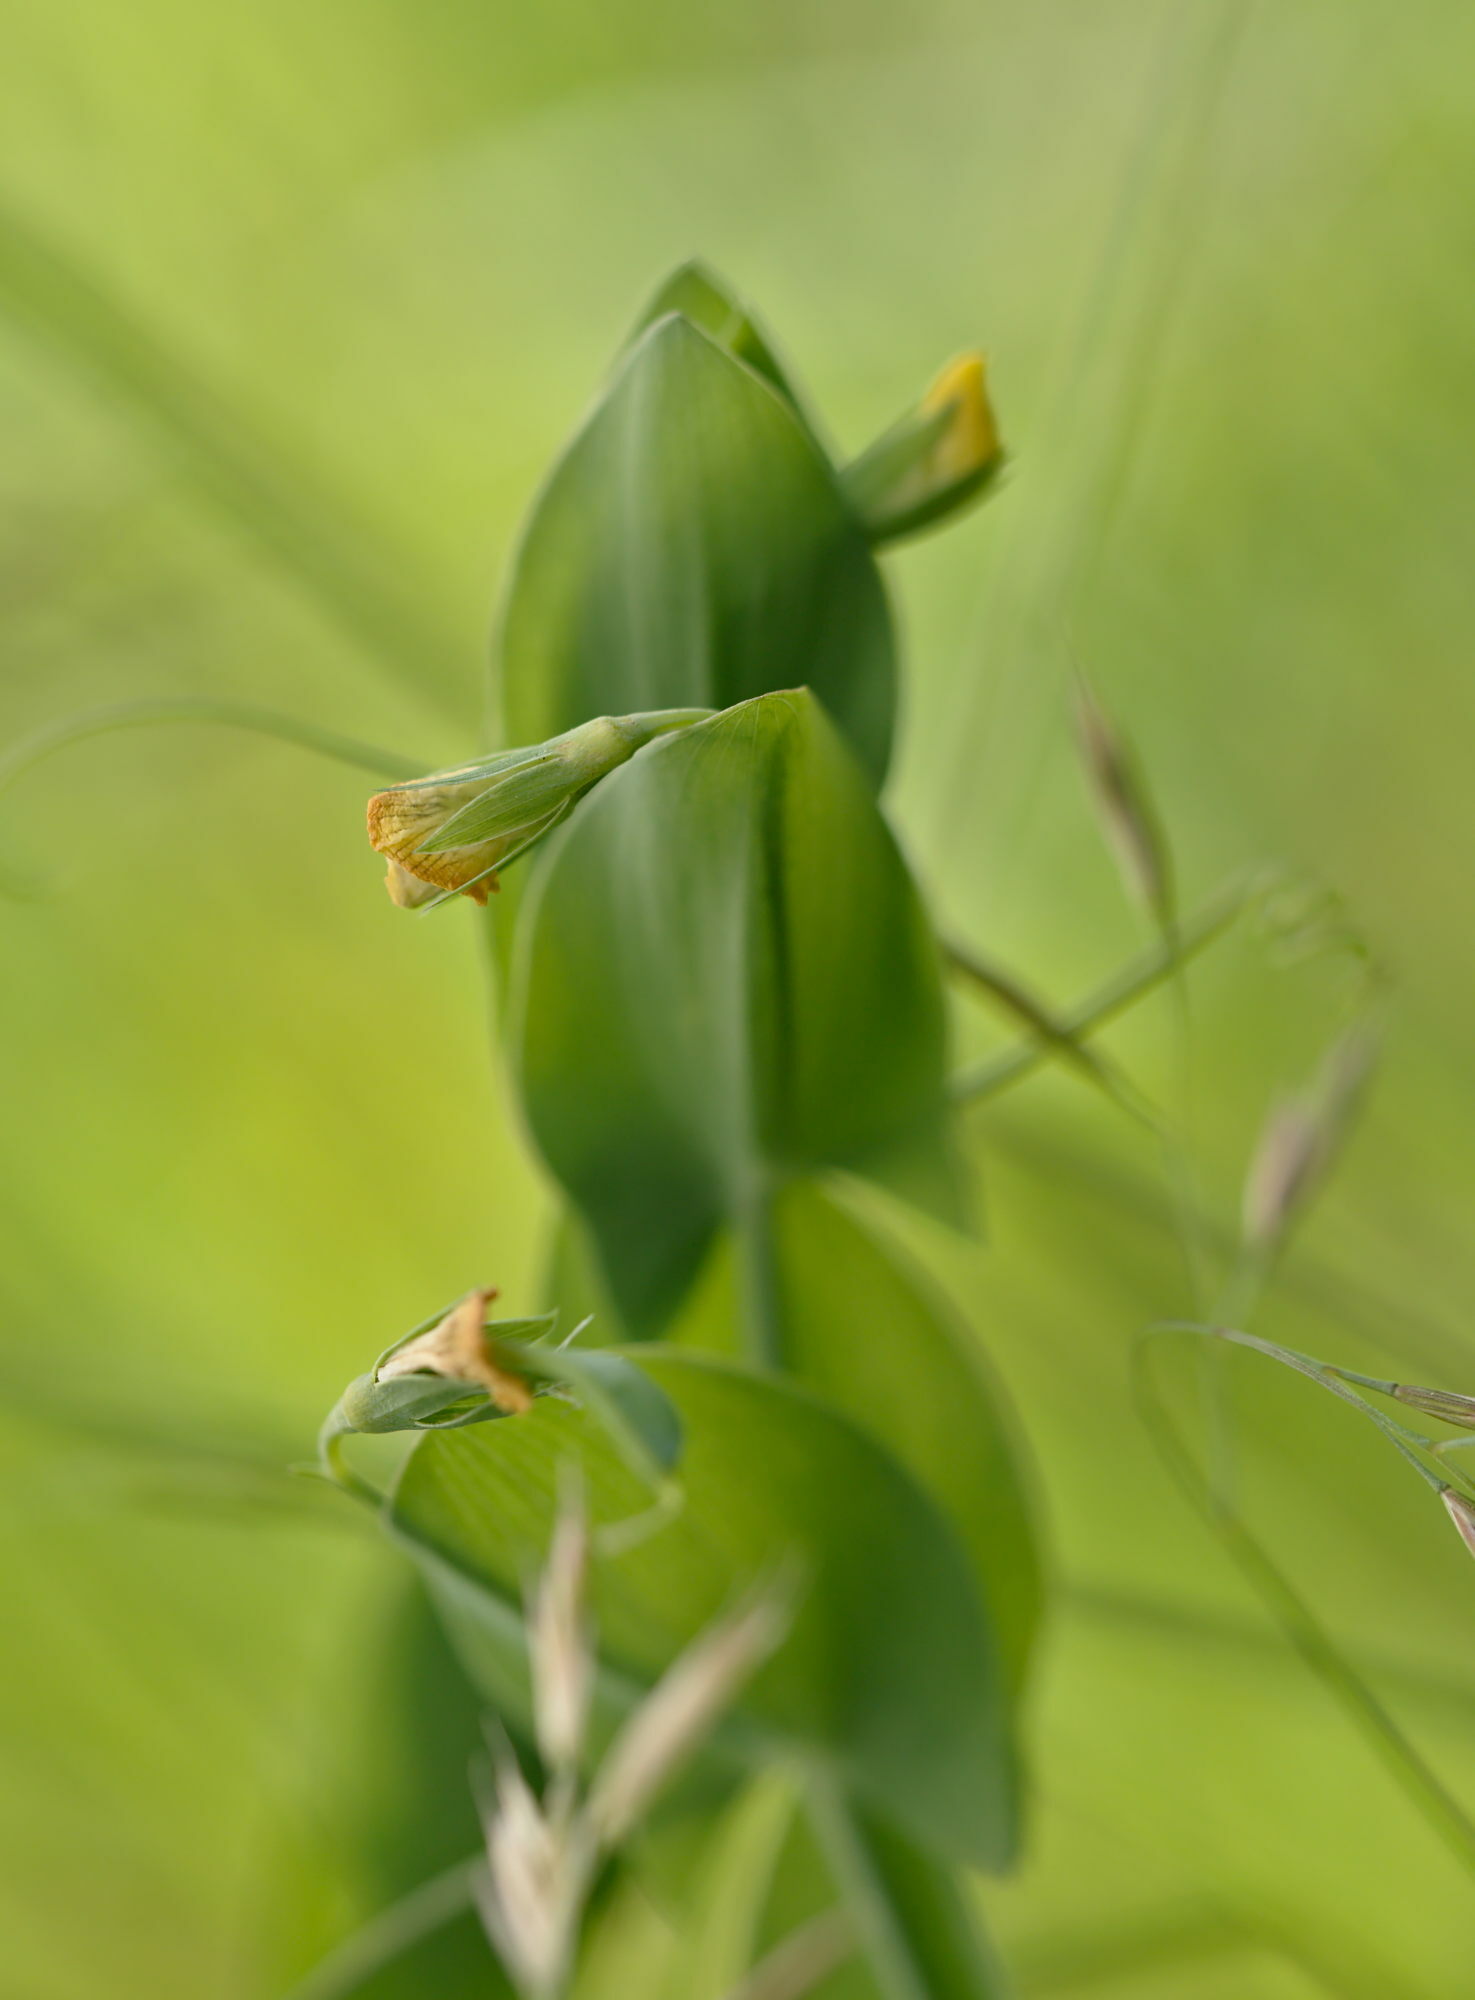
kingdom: Plantae
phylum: Tracheophyta
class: Magnoliopsida
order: Fabales
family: Fabaceae
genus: Lathyrus
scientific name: Lathyrus aphaca
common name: Yellow vetchling
